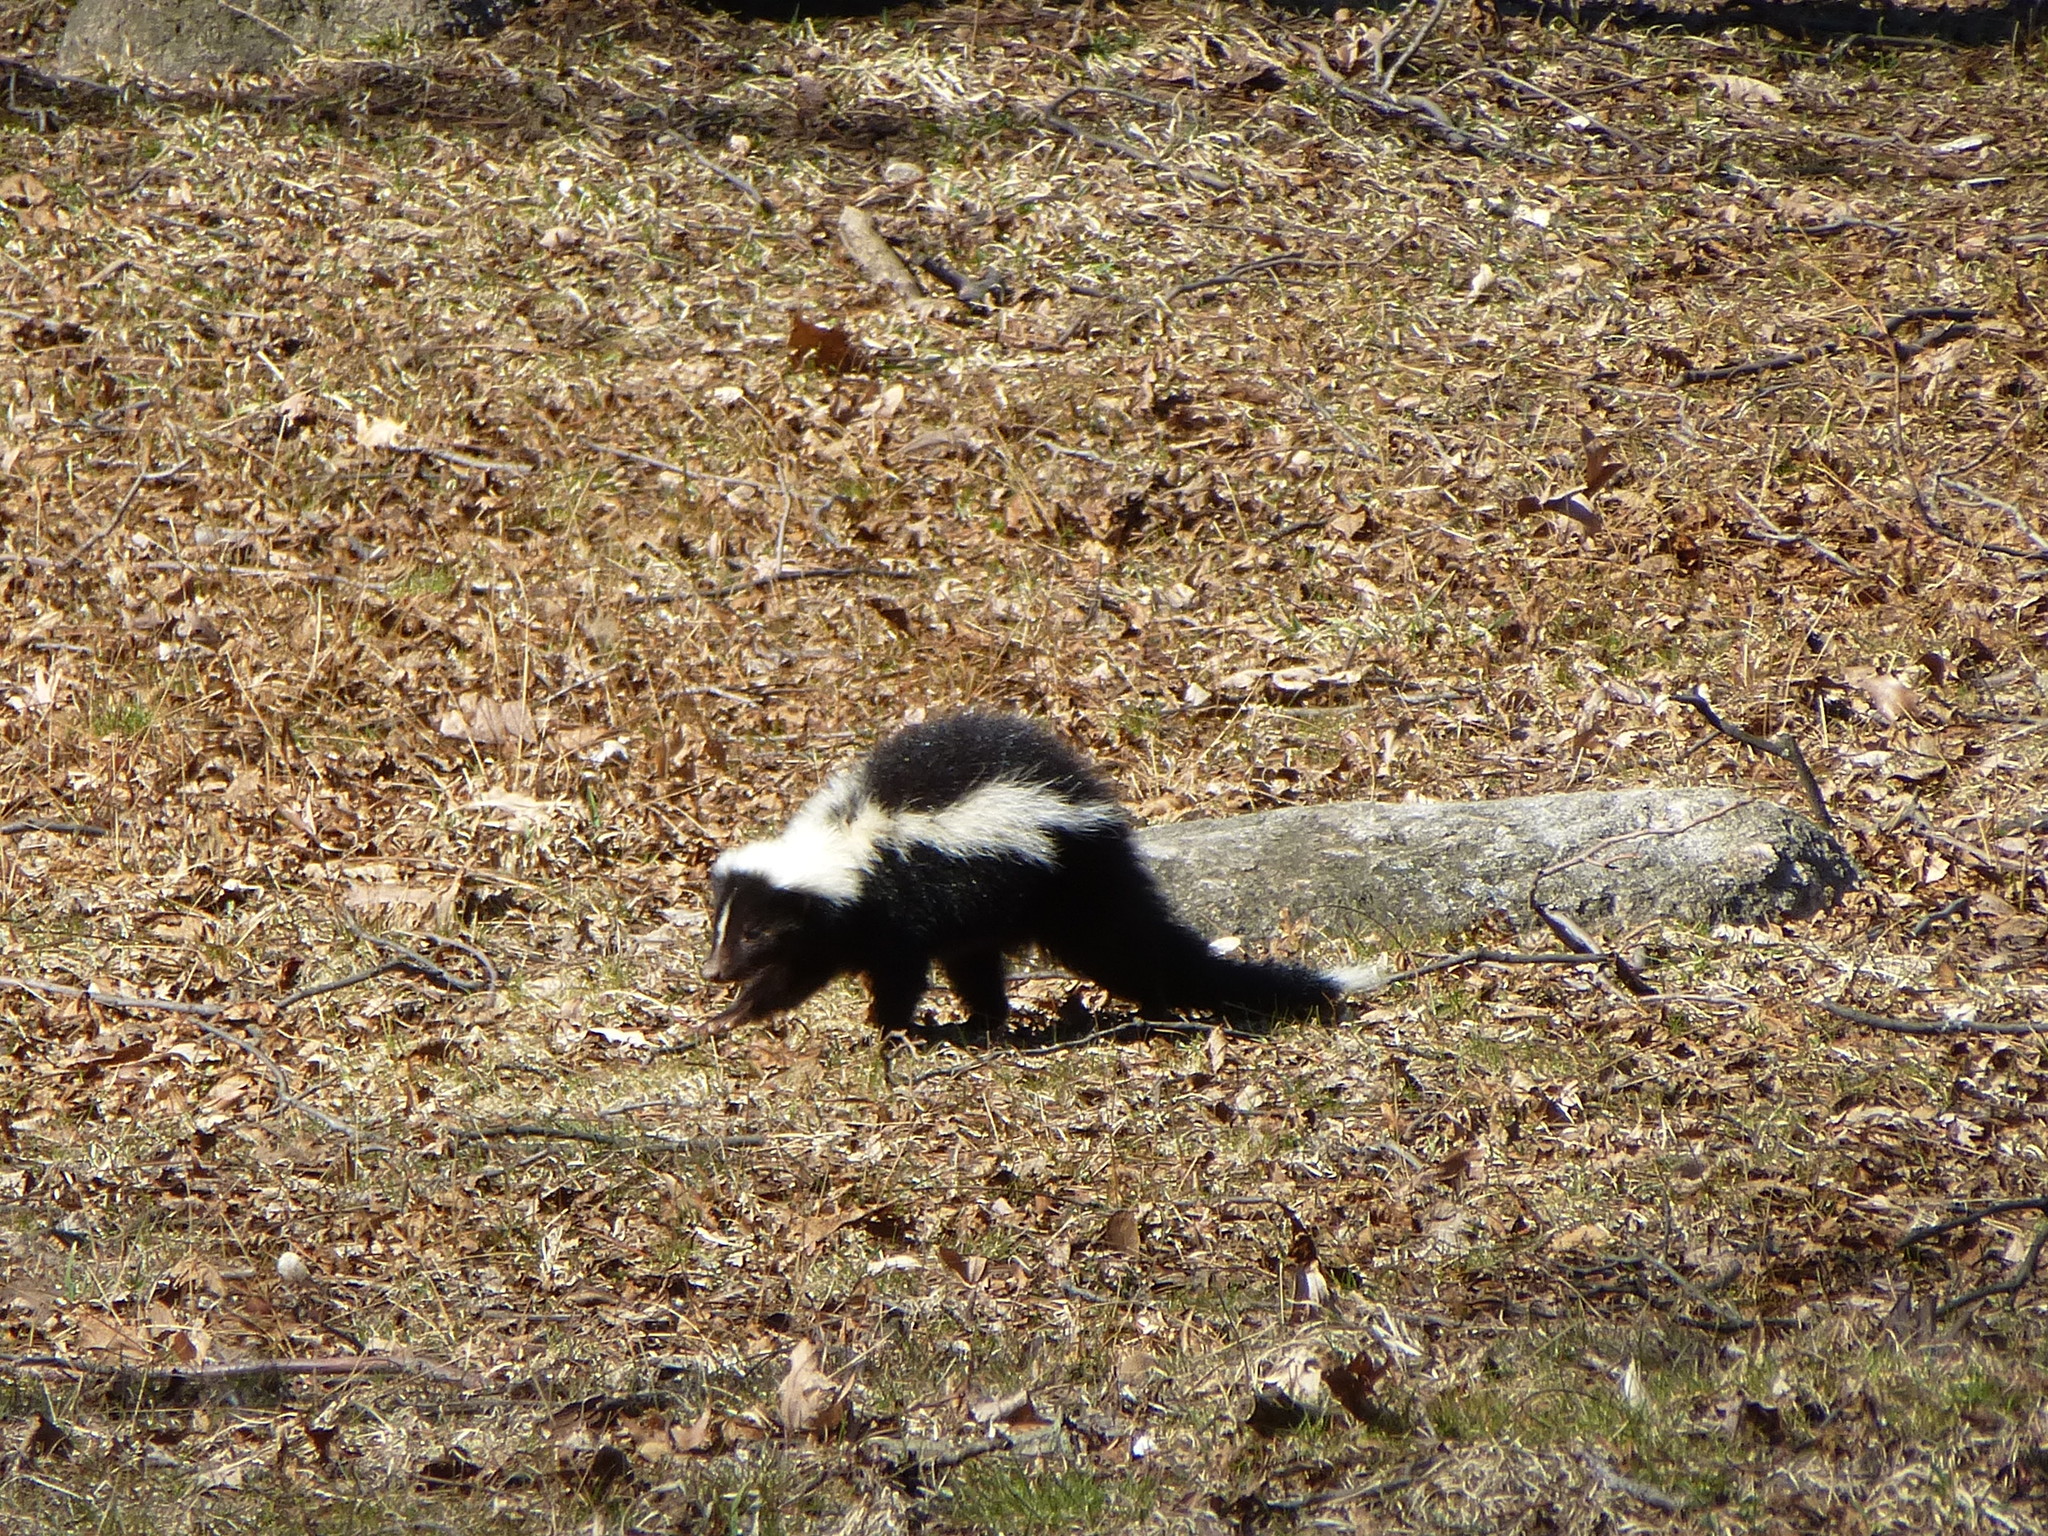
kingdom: Animalia
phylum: Chordata
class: Mammalia
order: Carnivora
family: Mephitidae
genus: Mephitis
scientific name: Mephitis mephitis
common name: Striped skunk
